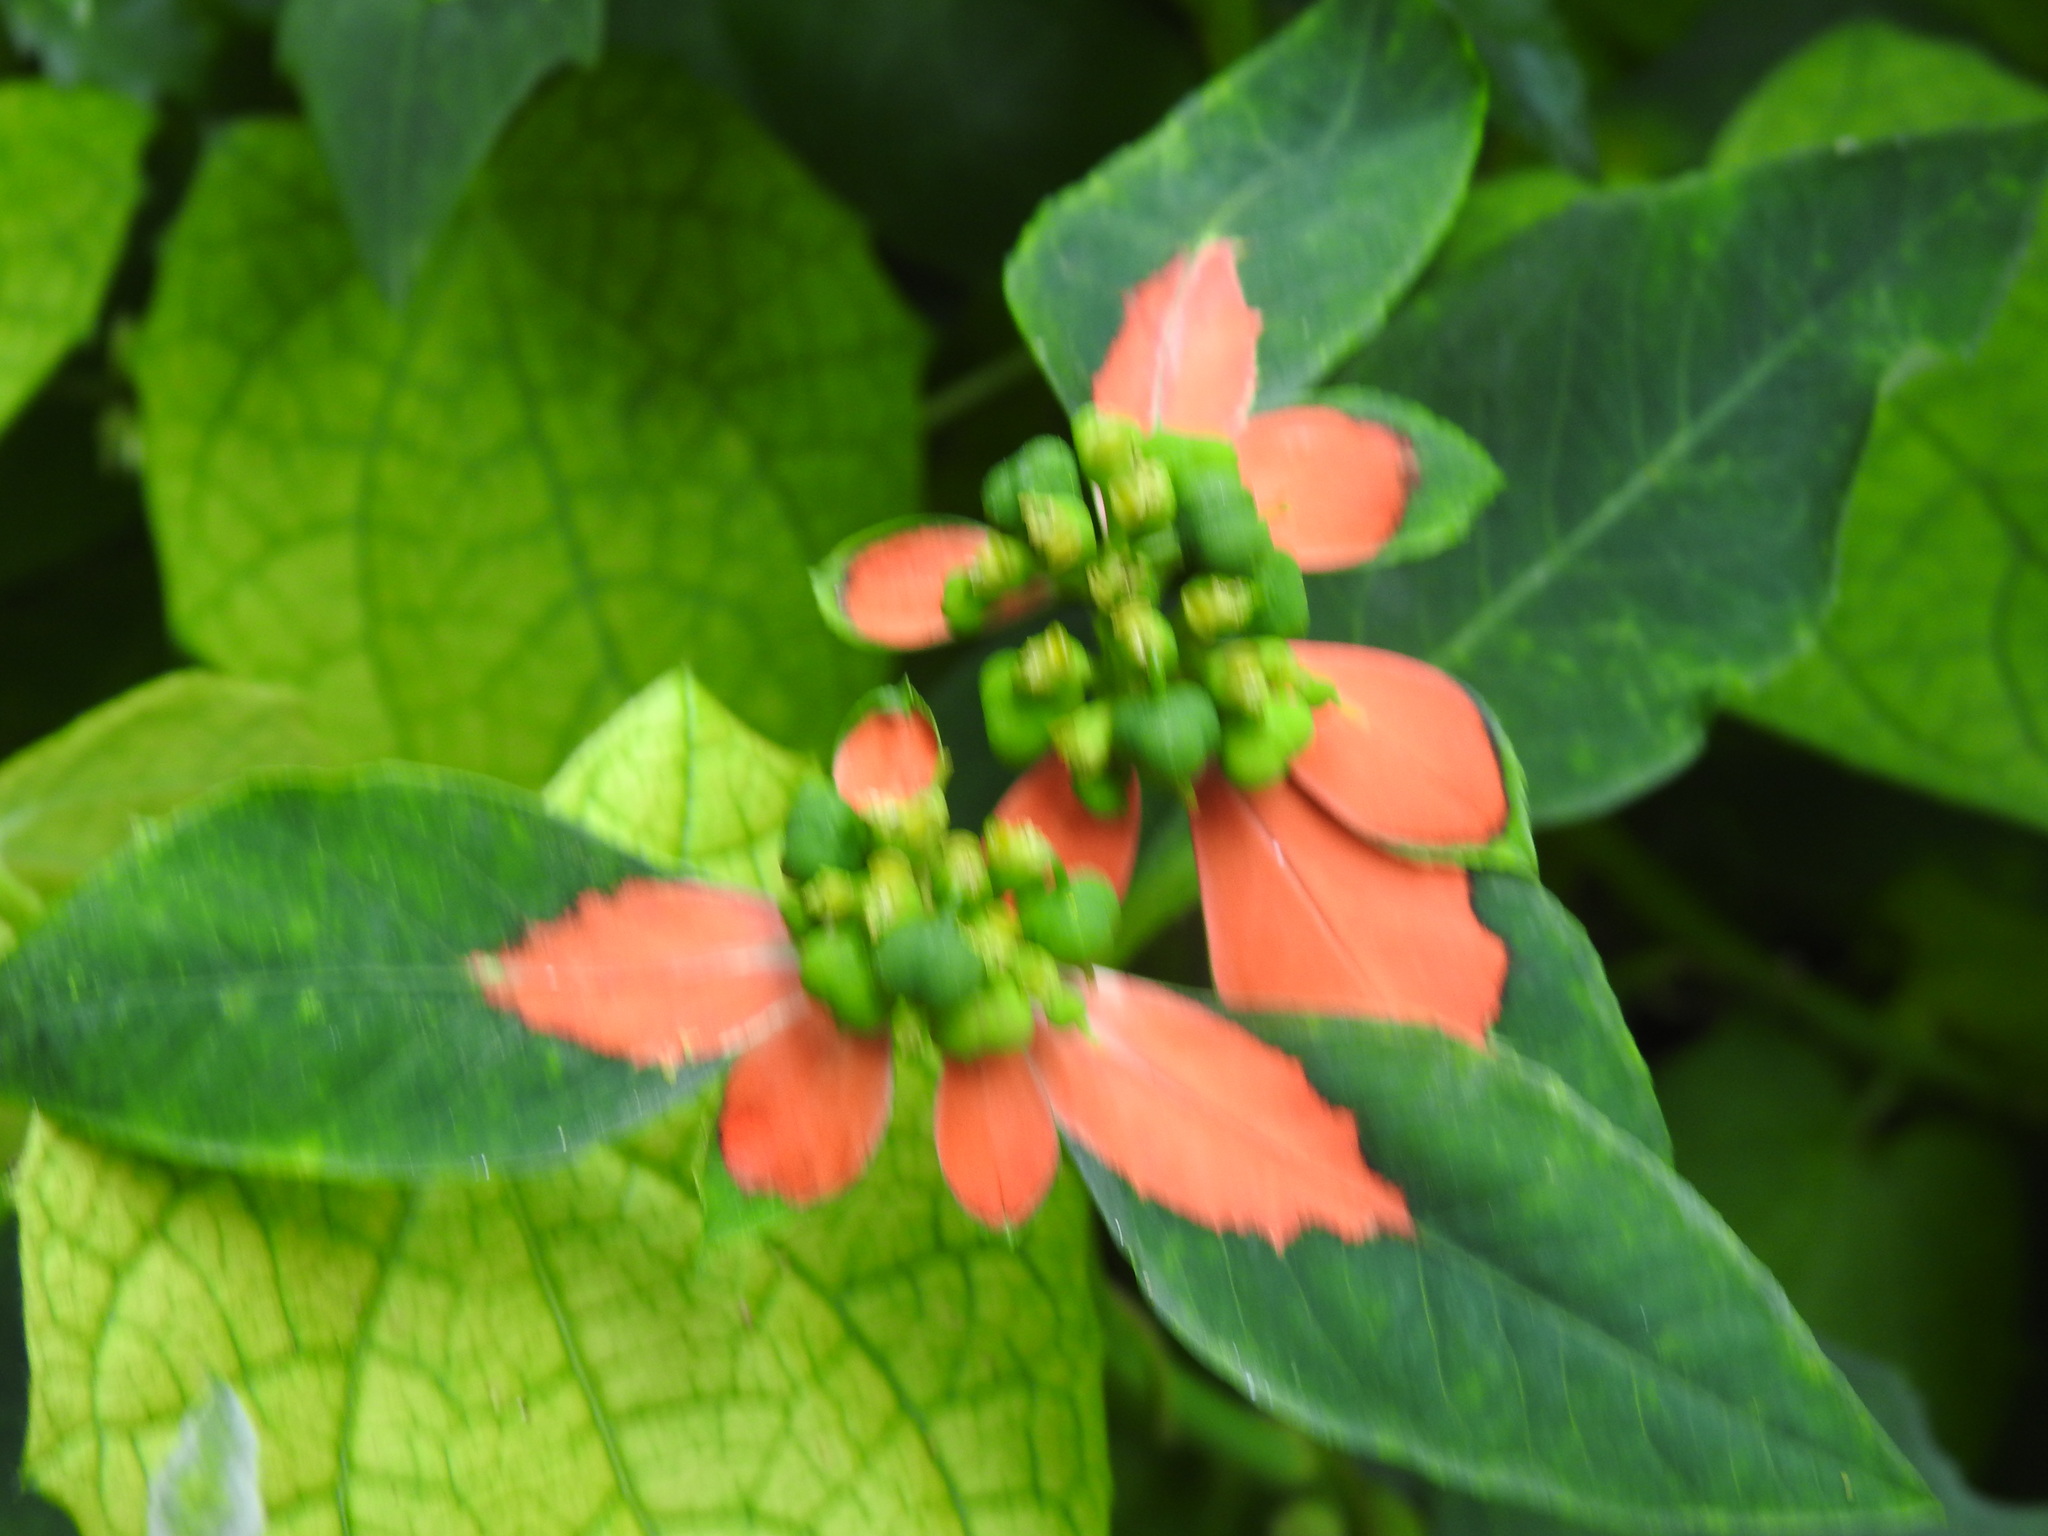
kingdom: Plantae
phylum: Tracheophyta
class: Magnoliopsida
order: Malpighiales
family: Euphorbiaceae
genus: Euphorbia
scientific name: Euphorbia heterophylla
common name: Mexican fireplant
